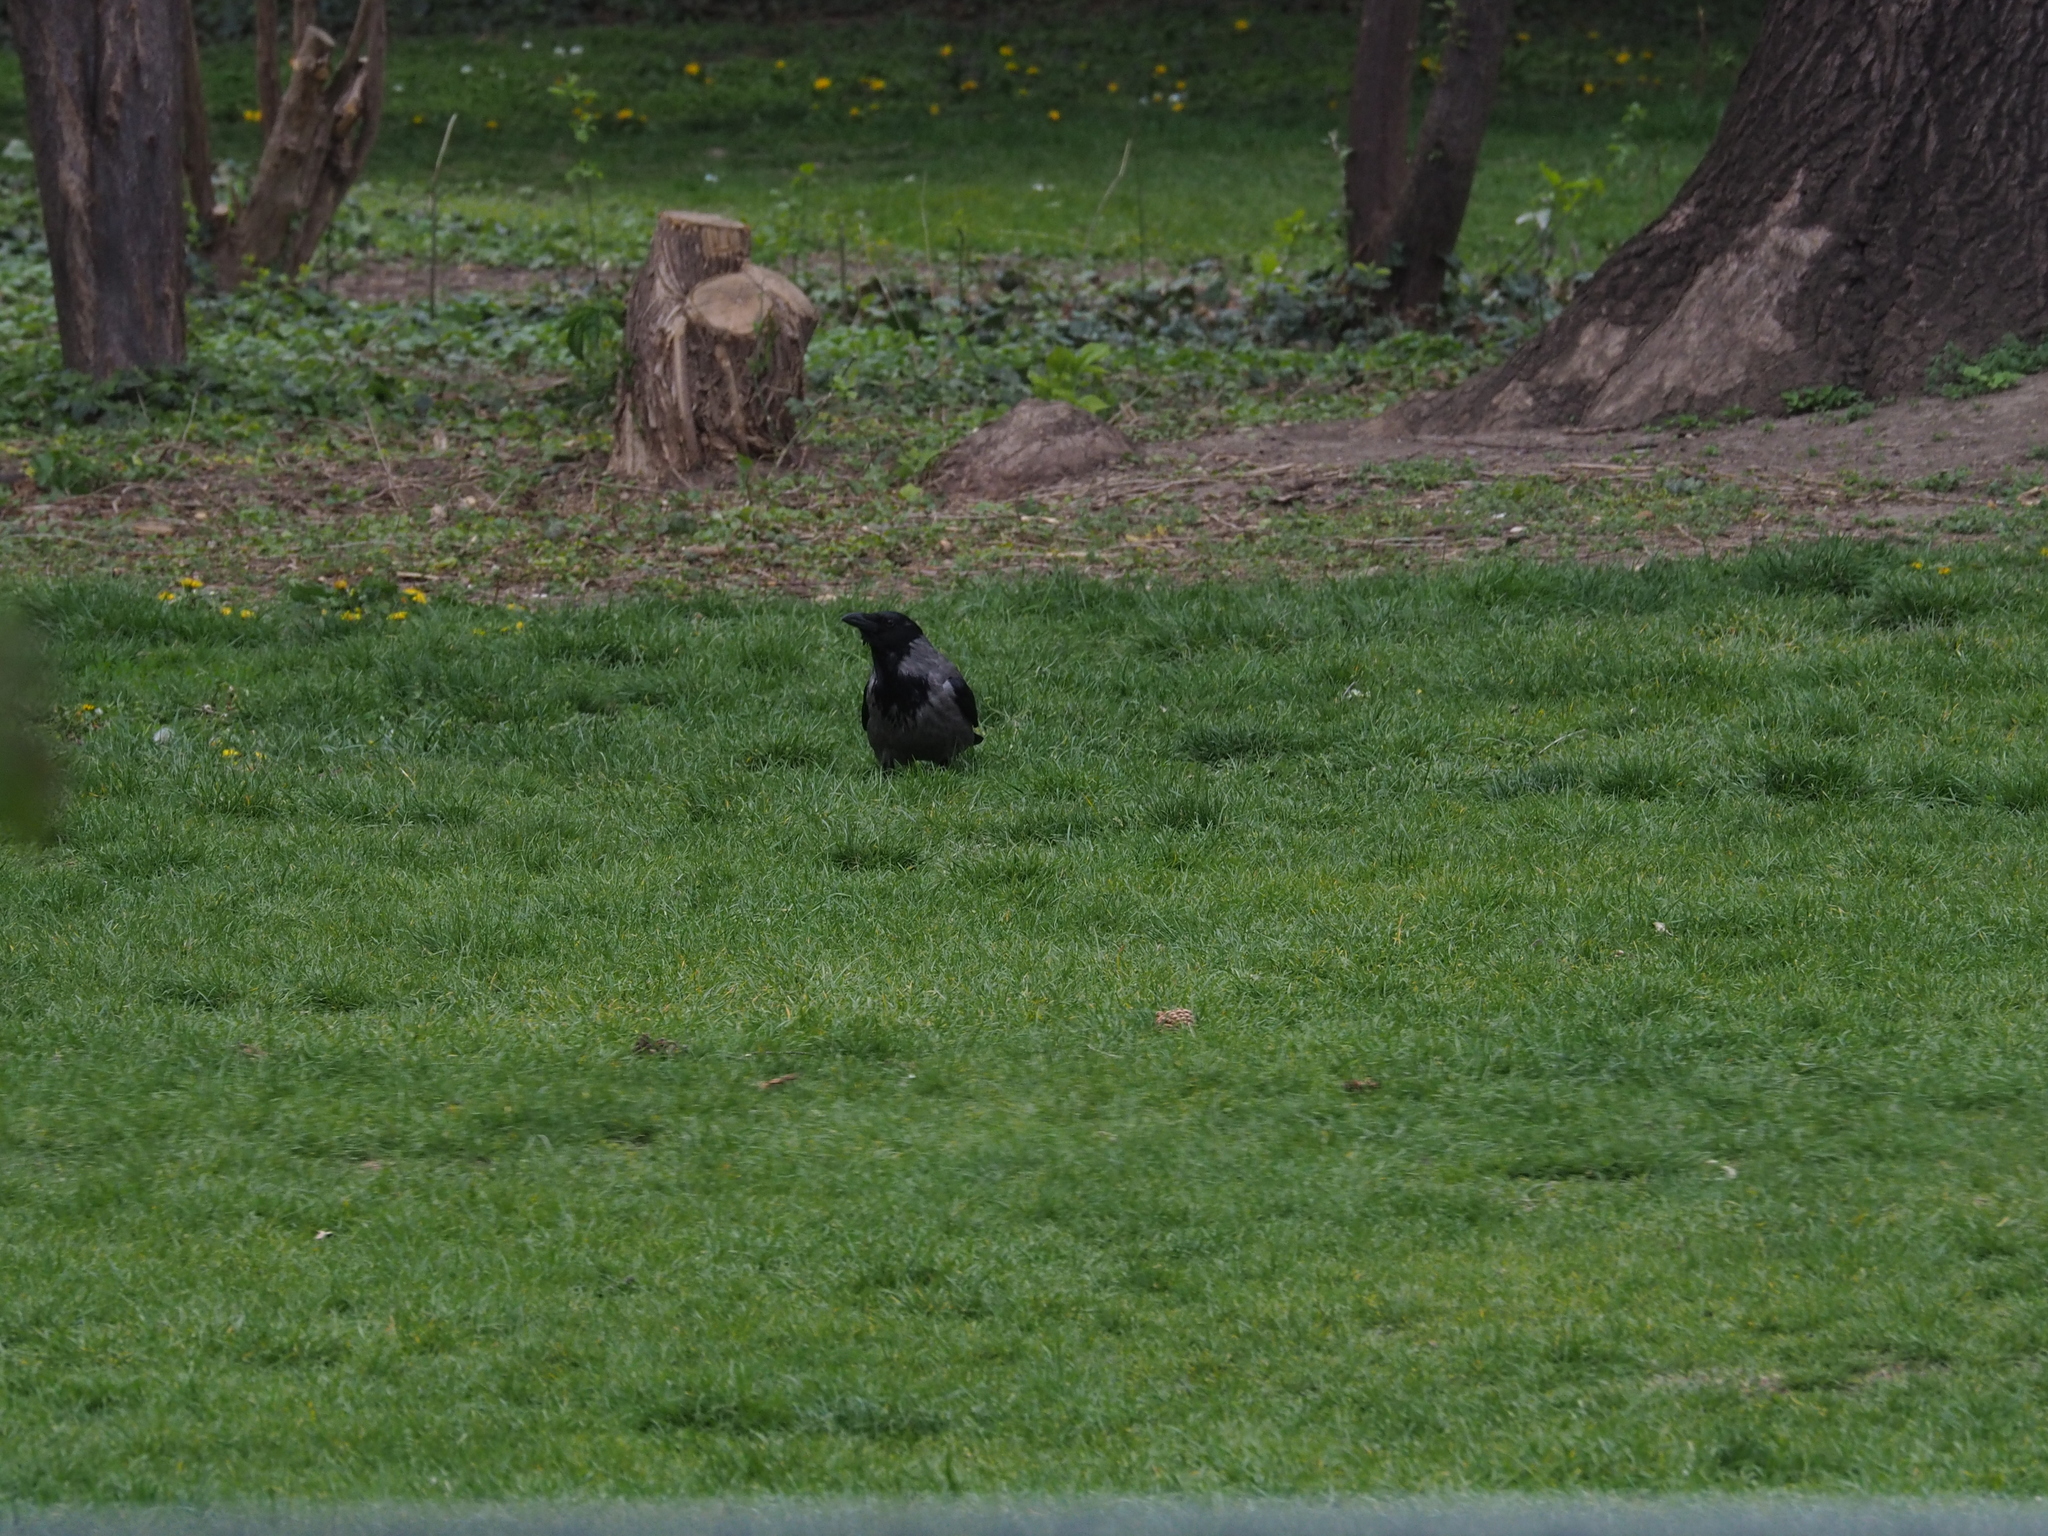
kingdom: Animalia
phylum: Chordata
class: Aves
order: Passeriformes
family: Corvidae
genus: Corvus
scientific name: Corvus cornix
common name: Hooded crow
